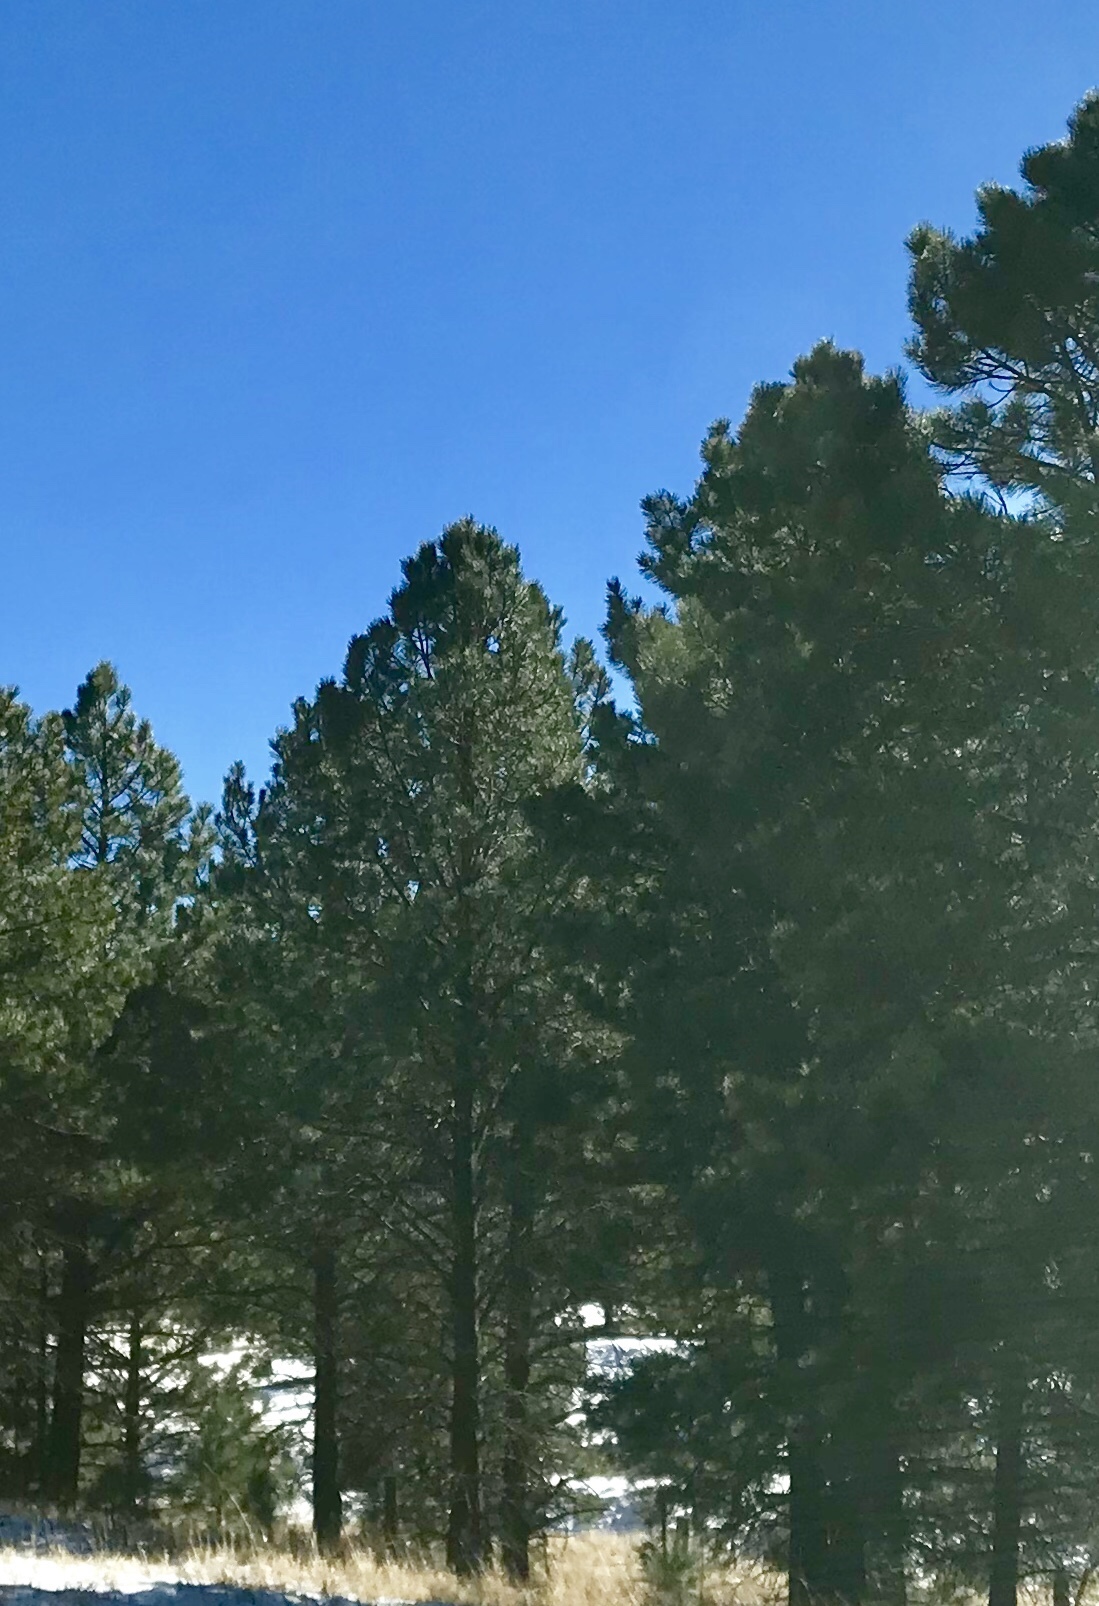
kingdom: Plantae
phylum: Tracheophyta
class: Pinopsida
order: Pinales
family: Pinaceae
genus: Pinus
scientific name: Pinus ponderosa
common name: Western yellow-pine
